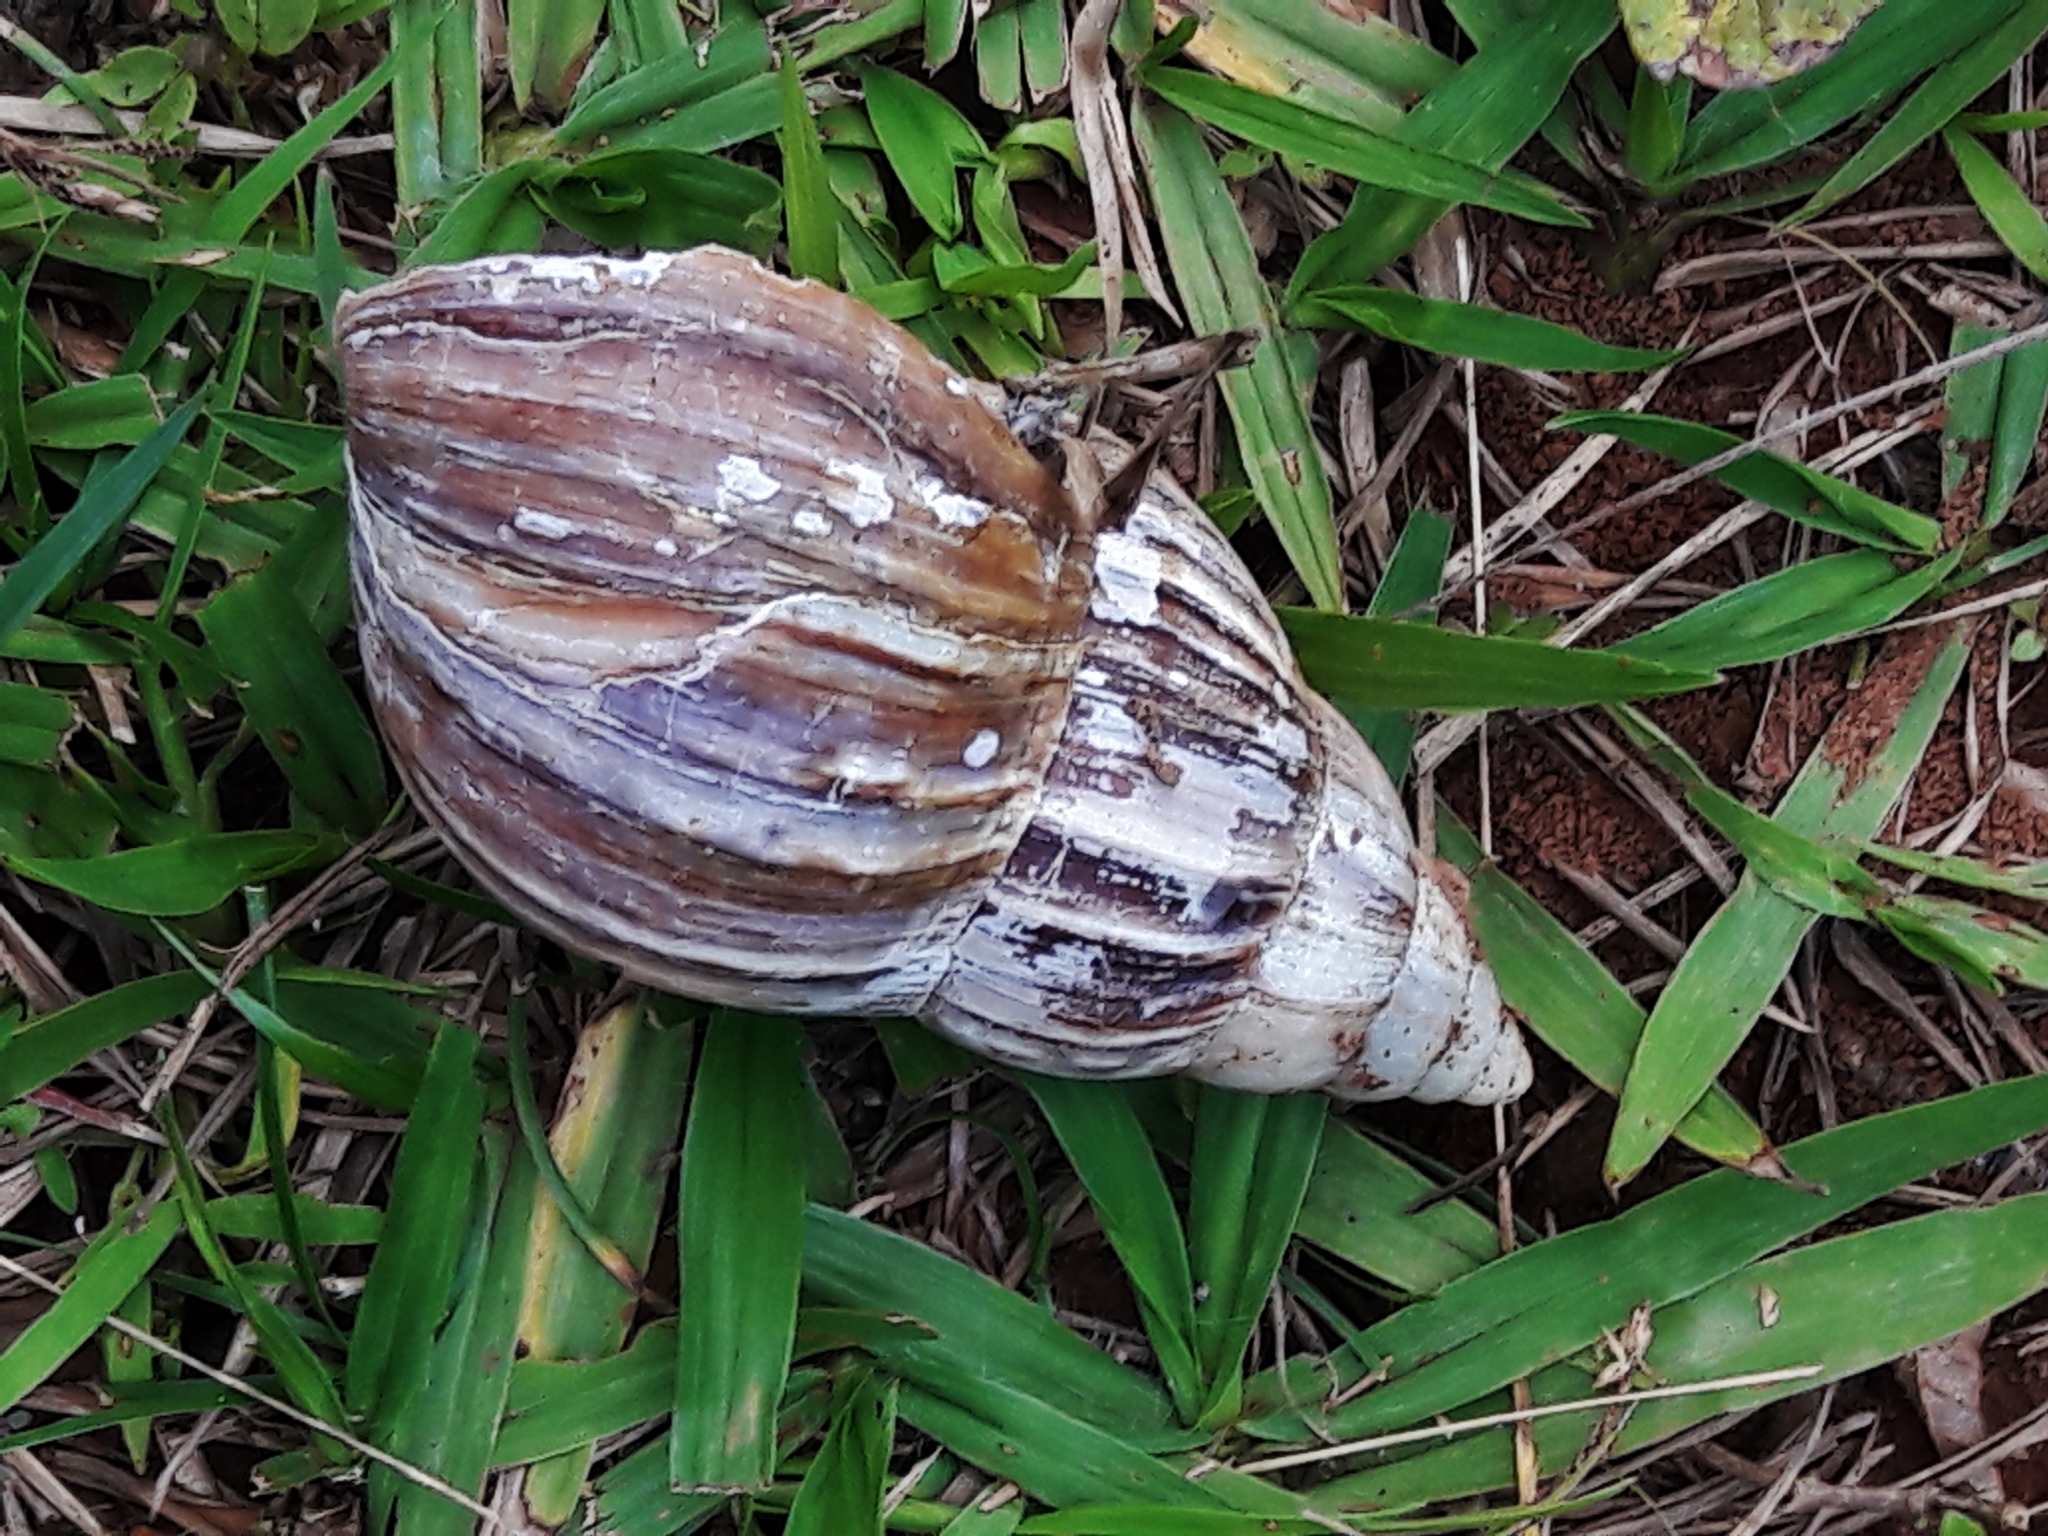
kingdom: Animalia
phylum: Mollusca
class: Gastropoda
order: Stylommatophora
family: Achatinidae
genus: Lissachatina
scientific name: Lissachatina fulica
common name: Giant african snail
